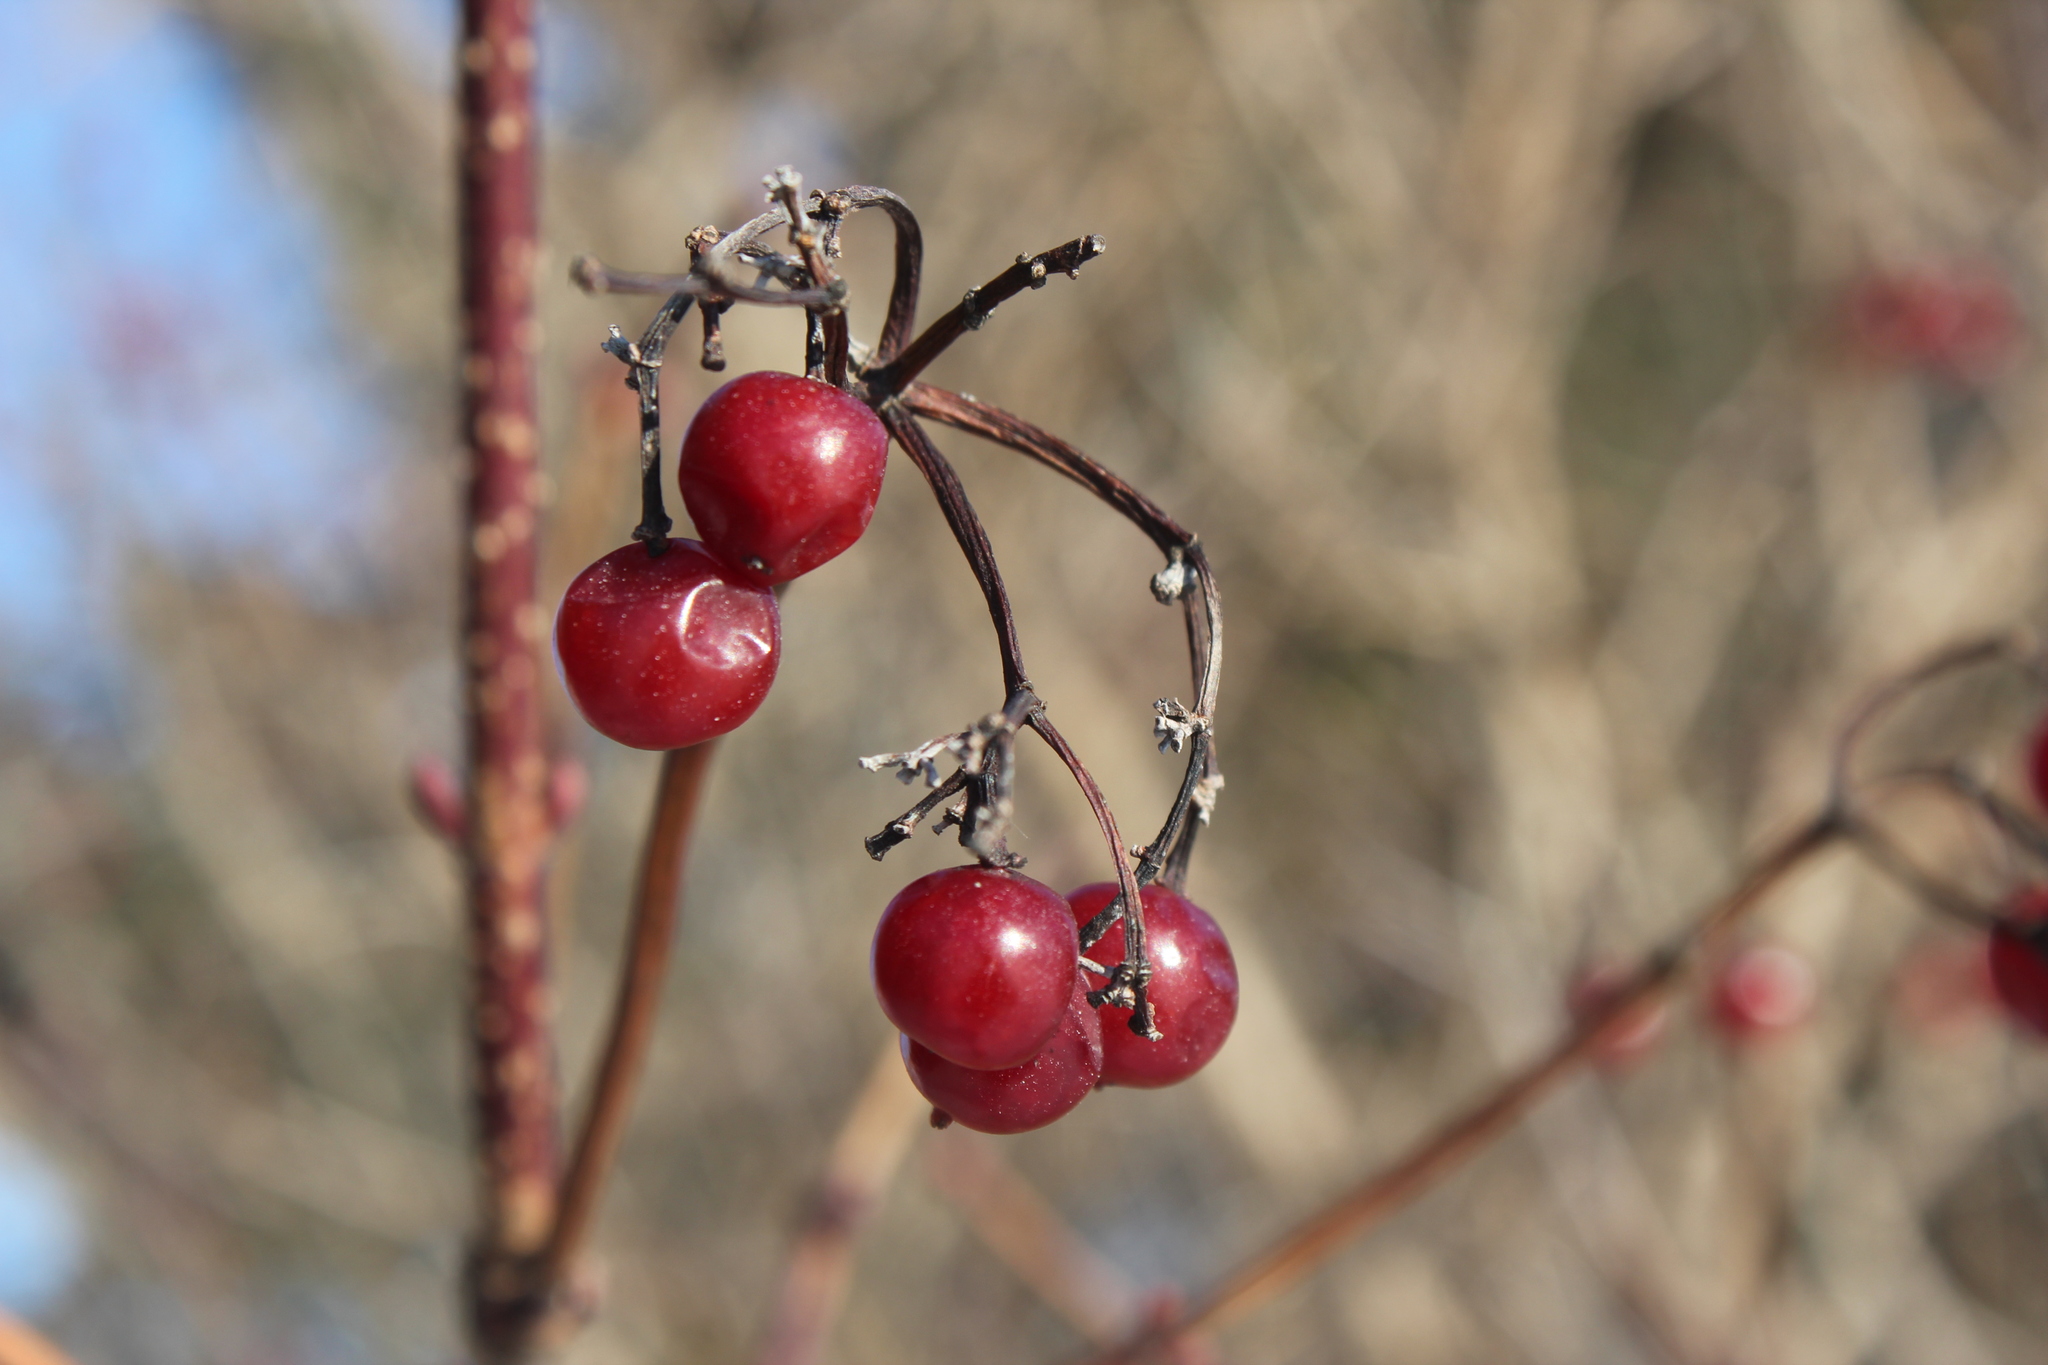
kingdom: Plantae
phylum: Tracheophyta
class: Magnoliopsida
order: Dipsacales
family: Viburnaceae
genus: Viburnum
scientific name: Viburnum opulus
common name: Guelder-rose
